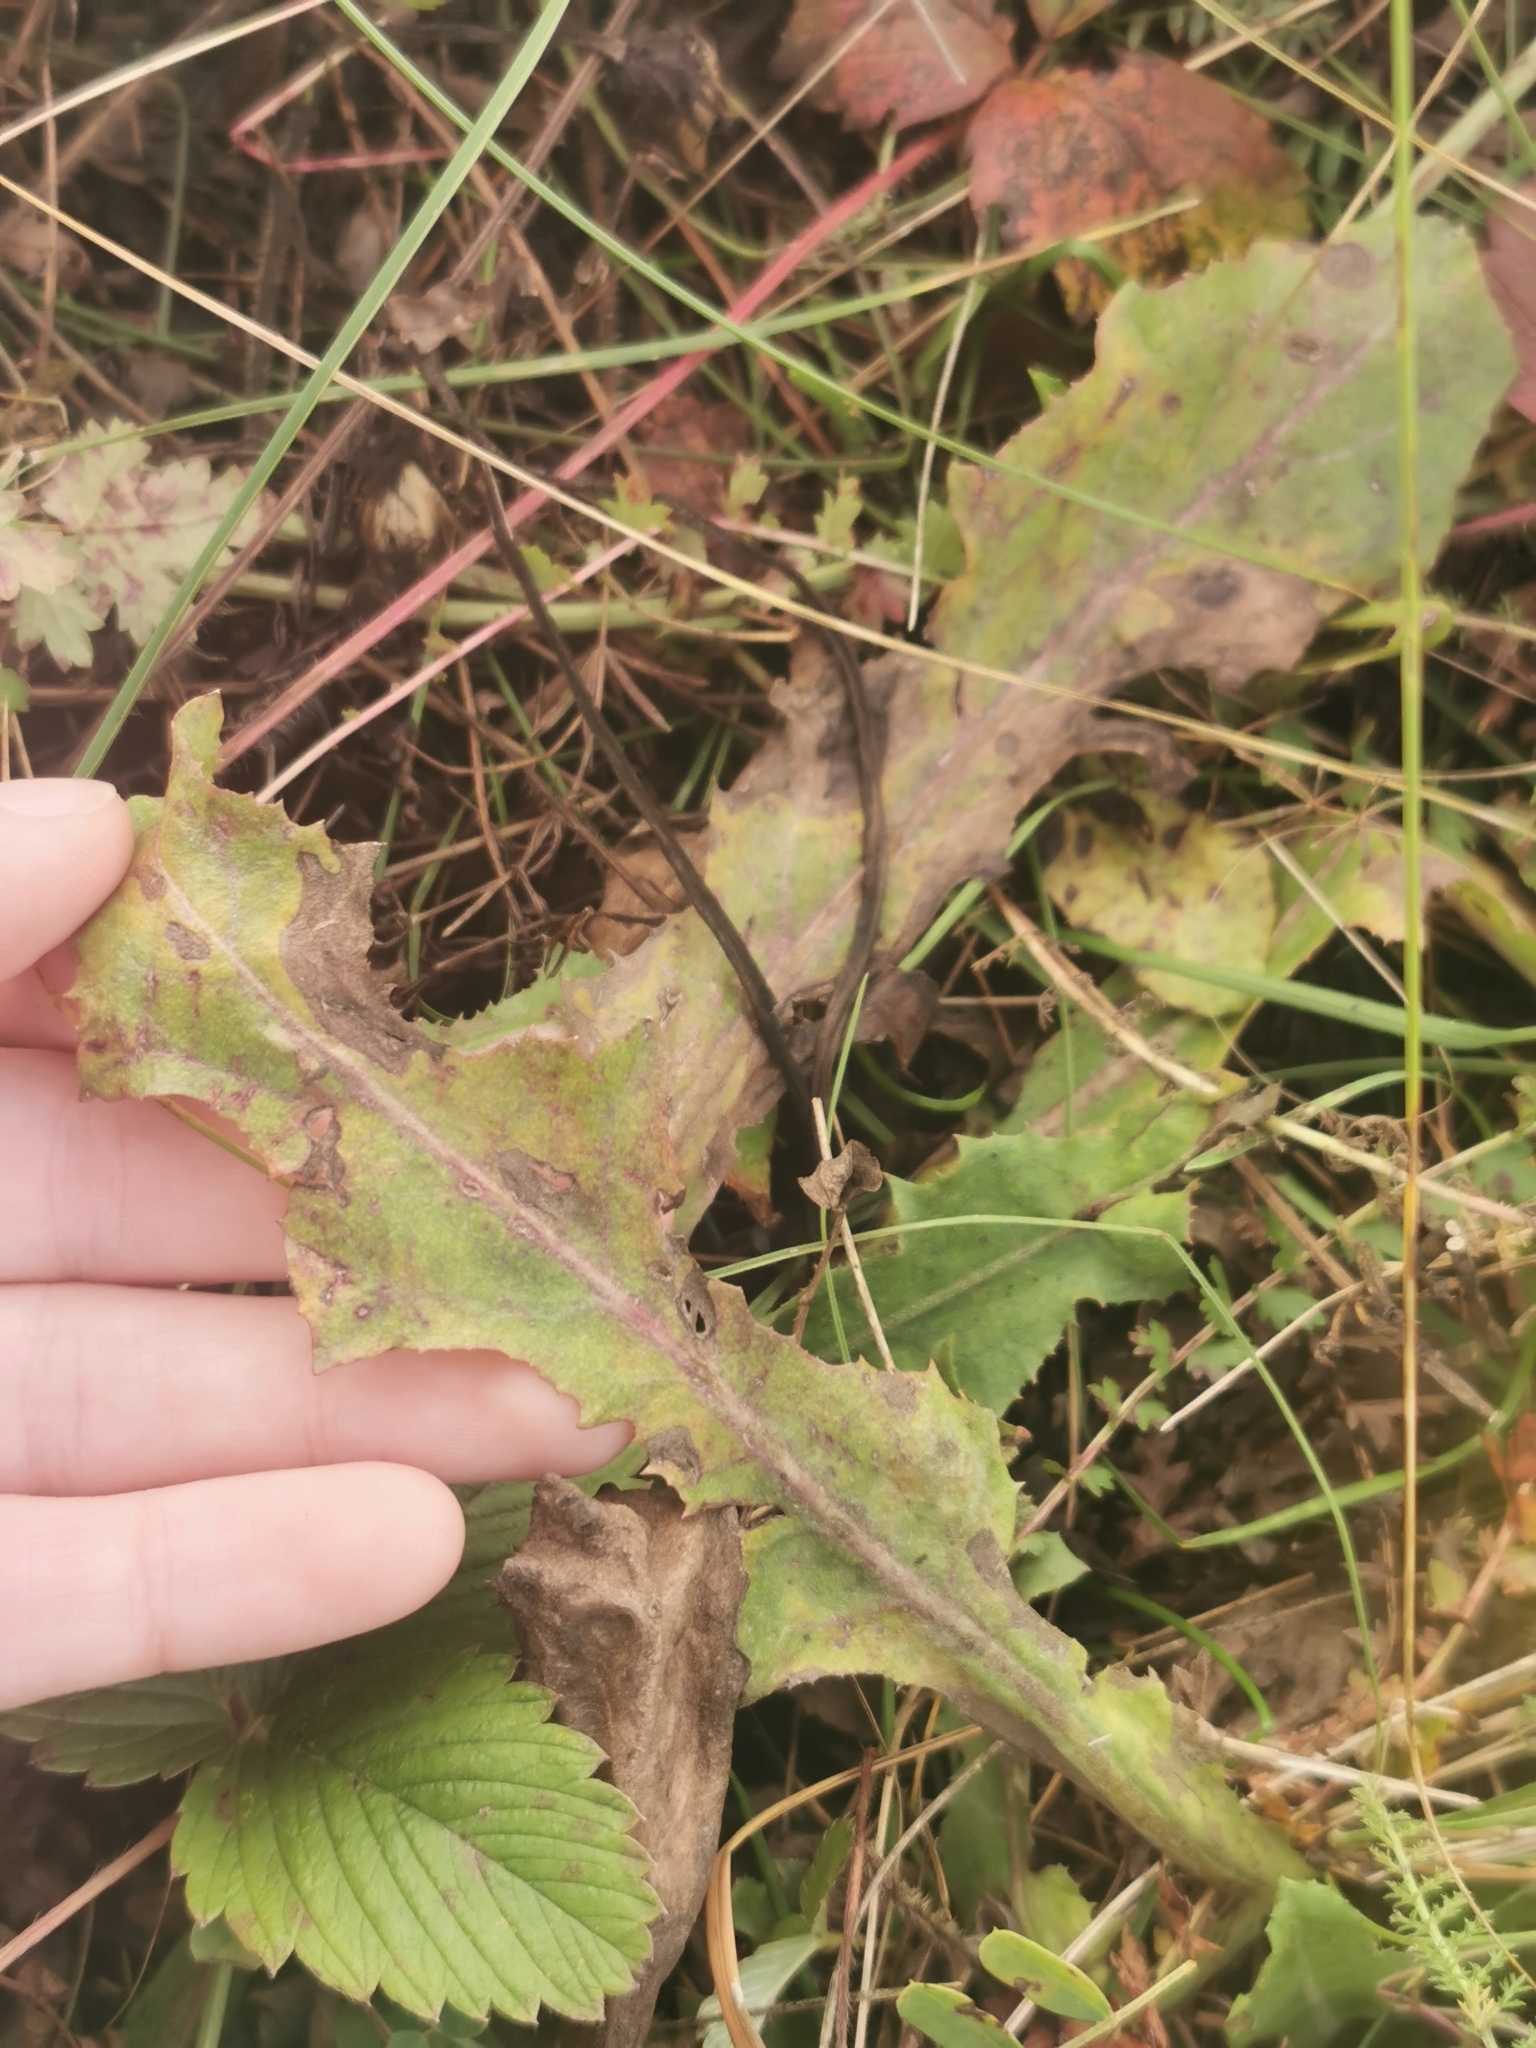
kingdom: Plantae
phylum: Tracheophyta
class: Magnoliopsida
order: Asterales
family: Asteraceae
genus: Taraxacum
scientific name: Taraxacum serotinum
